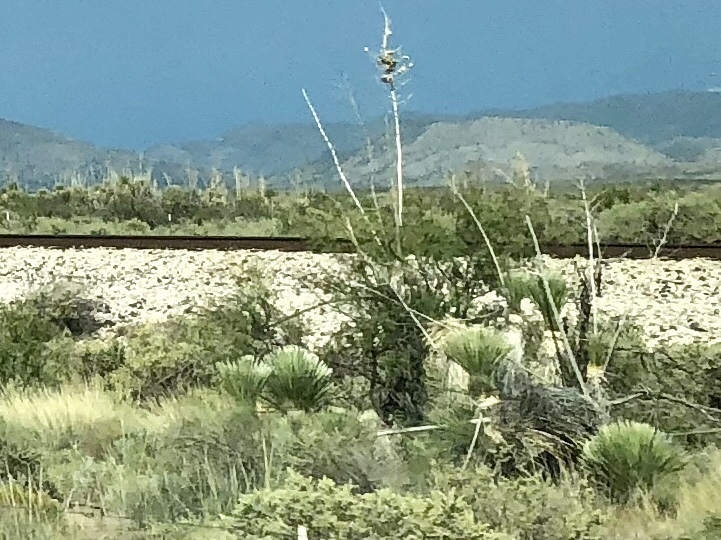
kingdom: Plantae
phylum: Tracheophyta
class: Liliopsida
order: Asparagales
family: Asparagaceae
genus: Yucca
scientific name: Yucca elata
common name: Palmella
